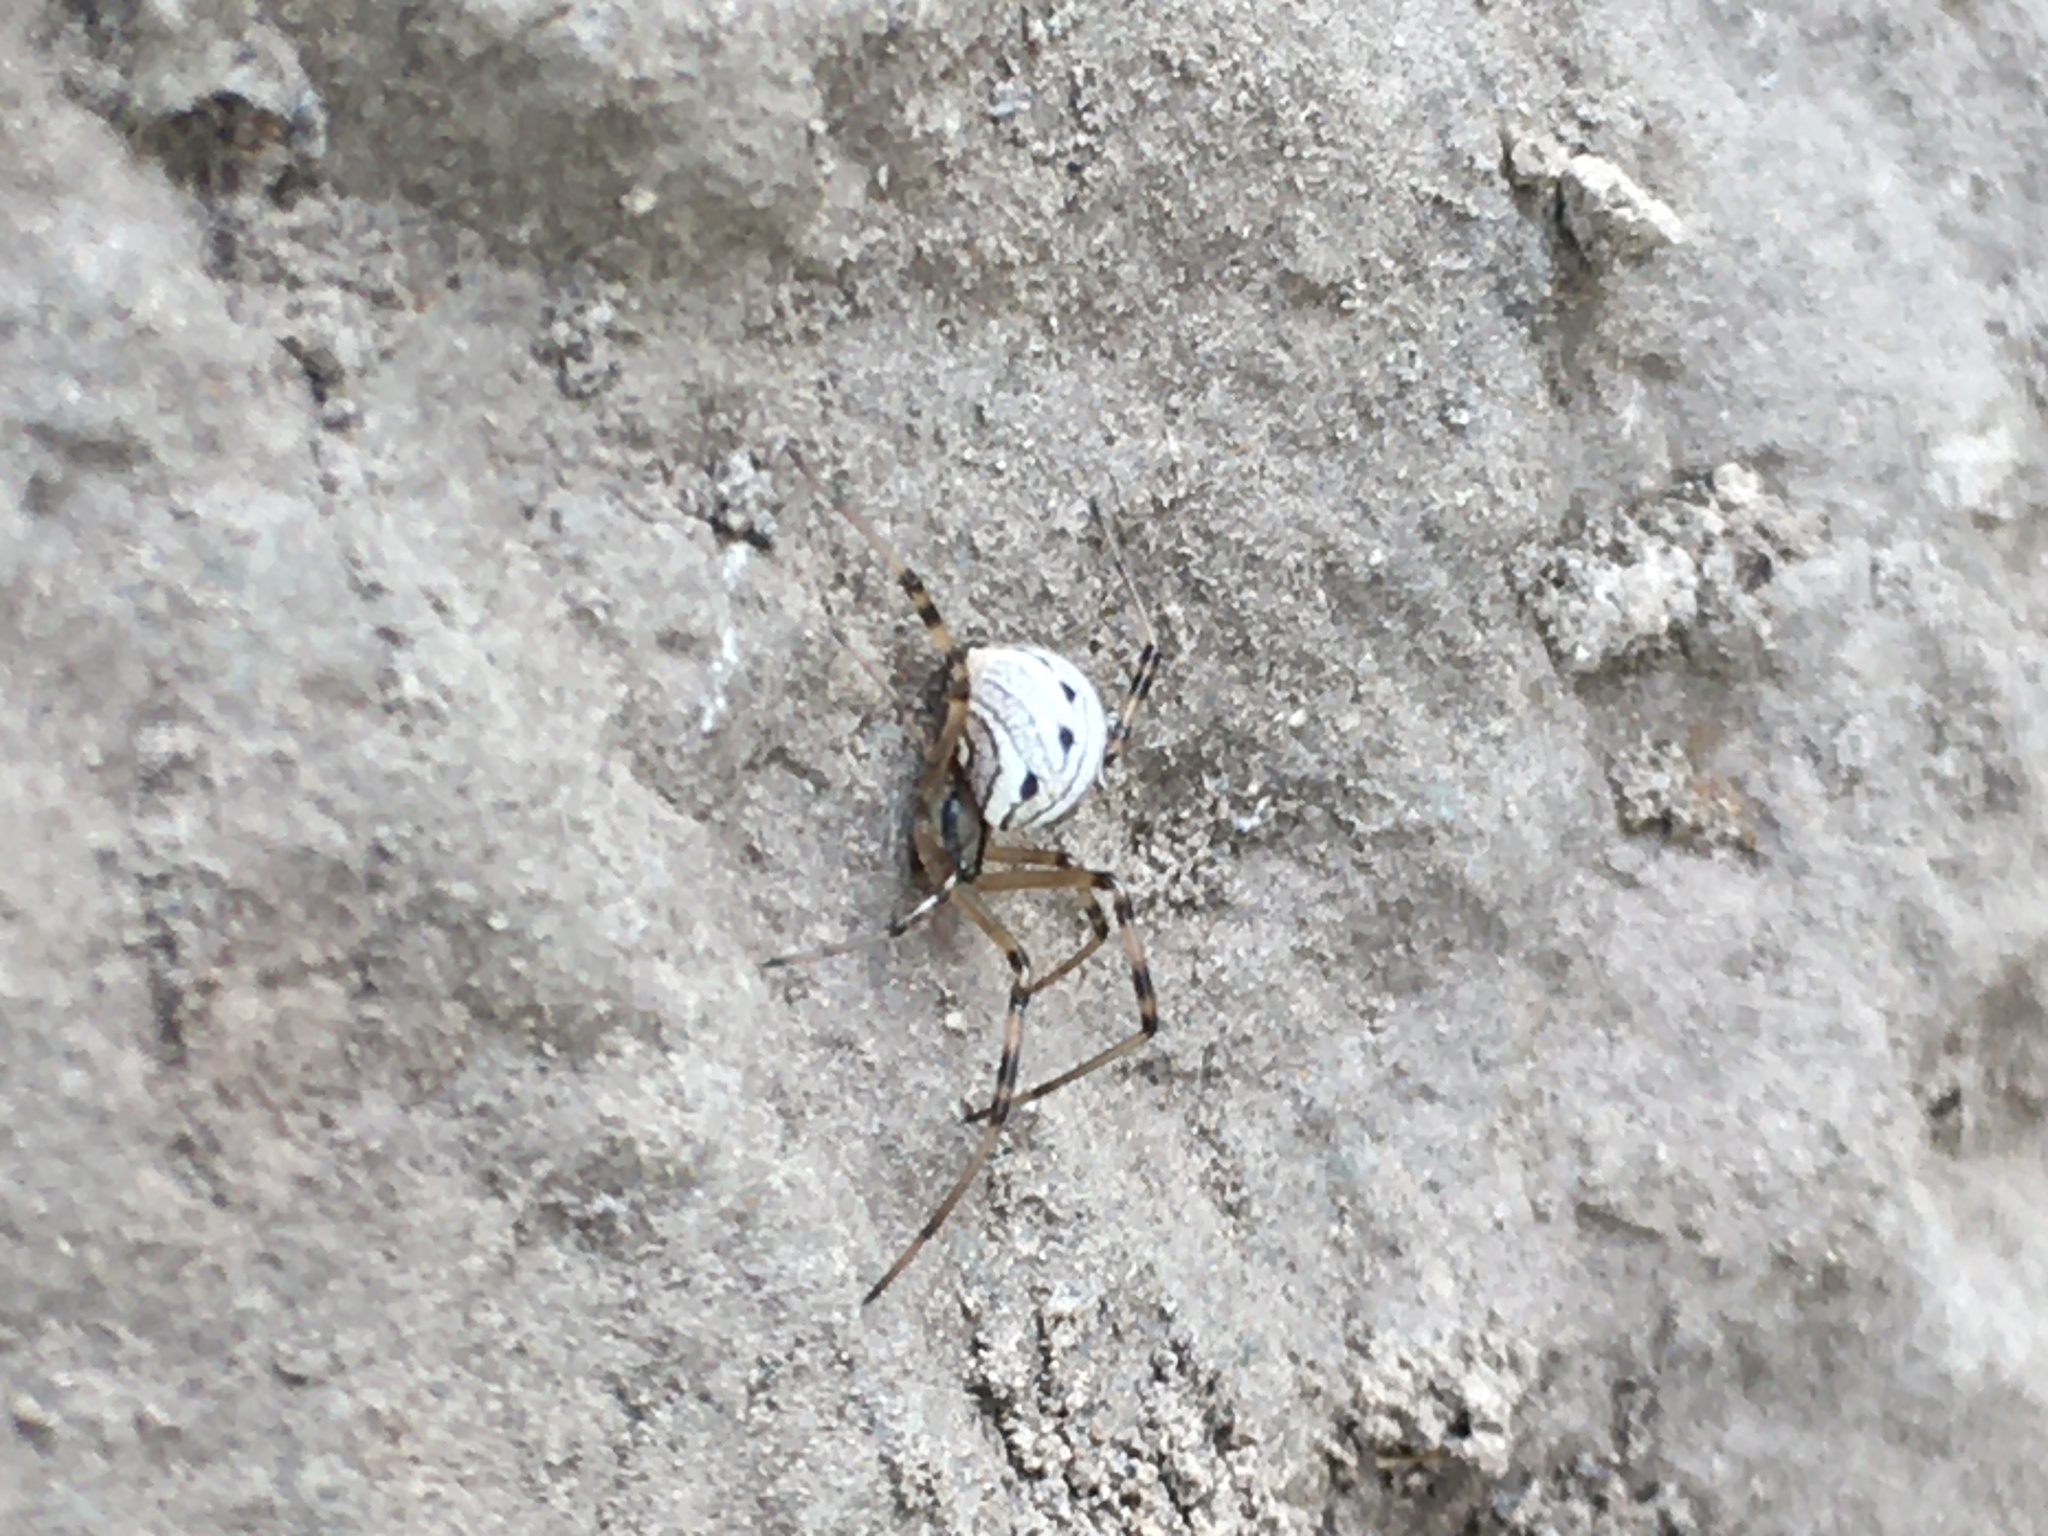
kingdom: Animalia
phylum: Arthropoda
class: Arachnida
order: Araneae
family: Theridiidae
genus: Latrodectus
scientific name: Latrodectus hesperus
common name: Western black widow
